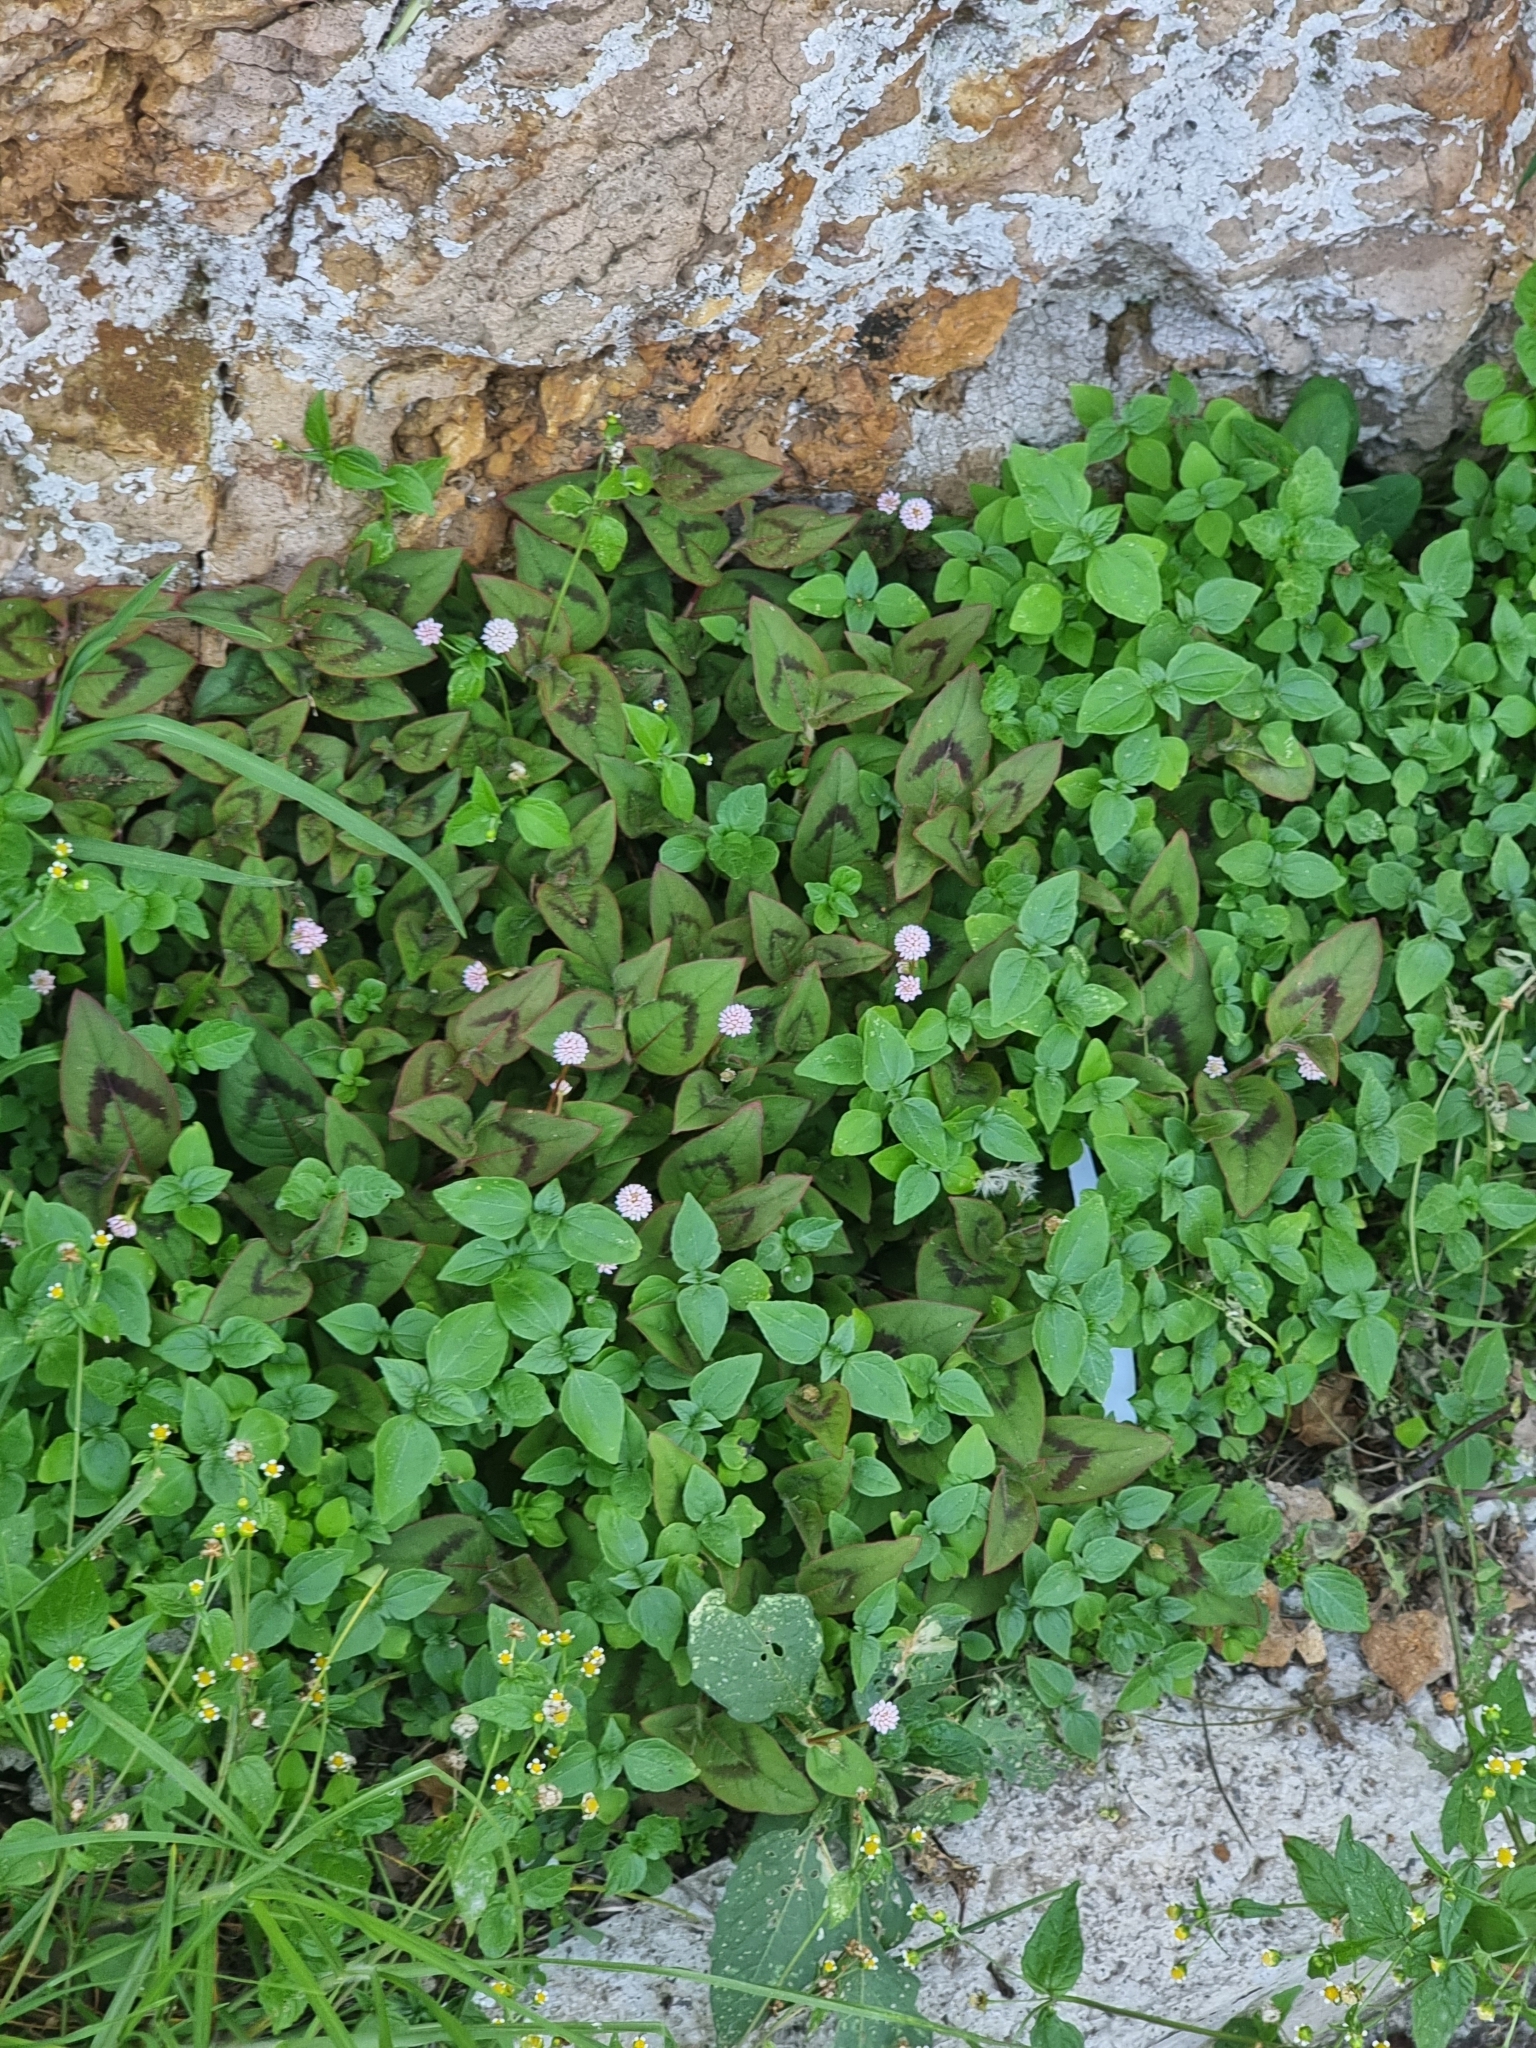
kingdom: Plantae
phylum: Tracheophyta
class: Magnoliopsida
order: Caryophyllales
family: Polygonaceae
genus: Persicaria
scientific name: Persicaria capitata
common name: Pinkhead smartweed
